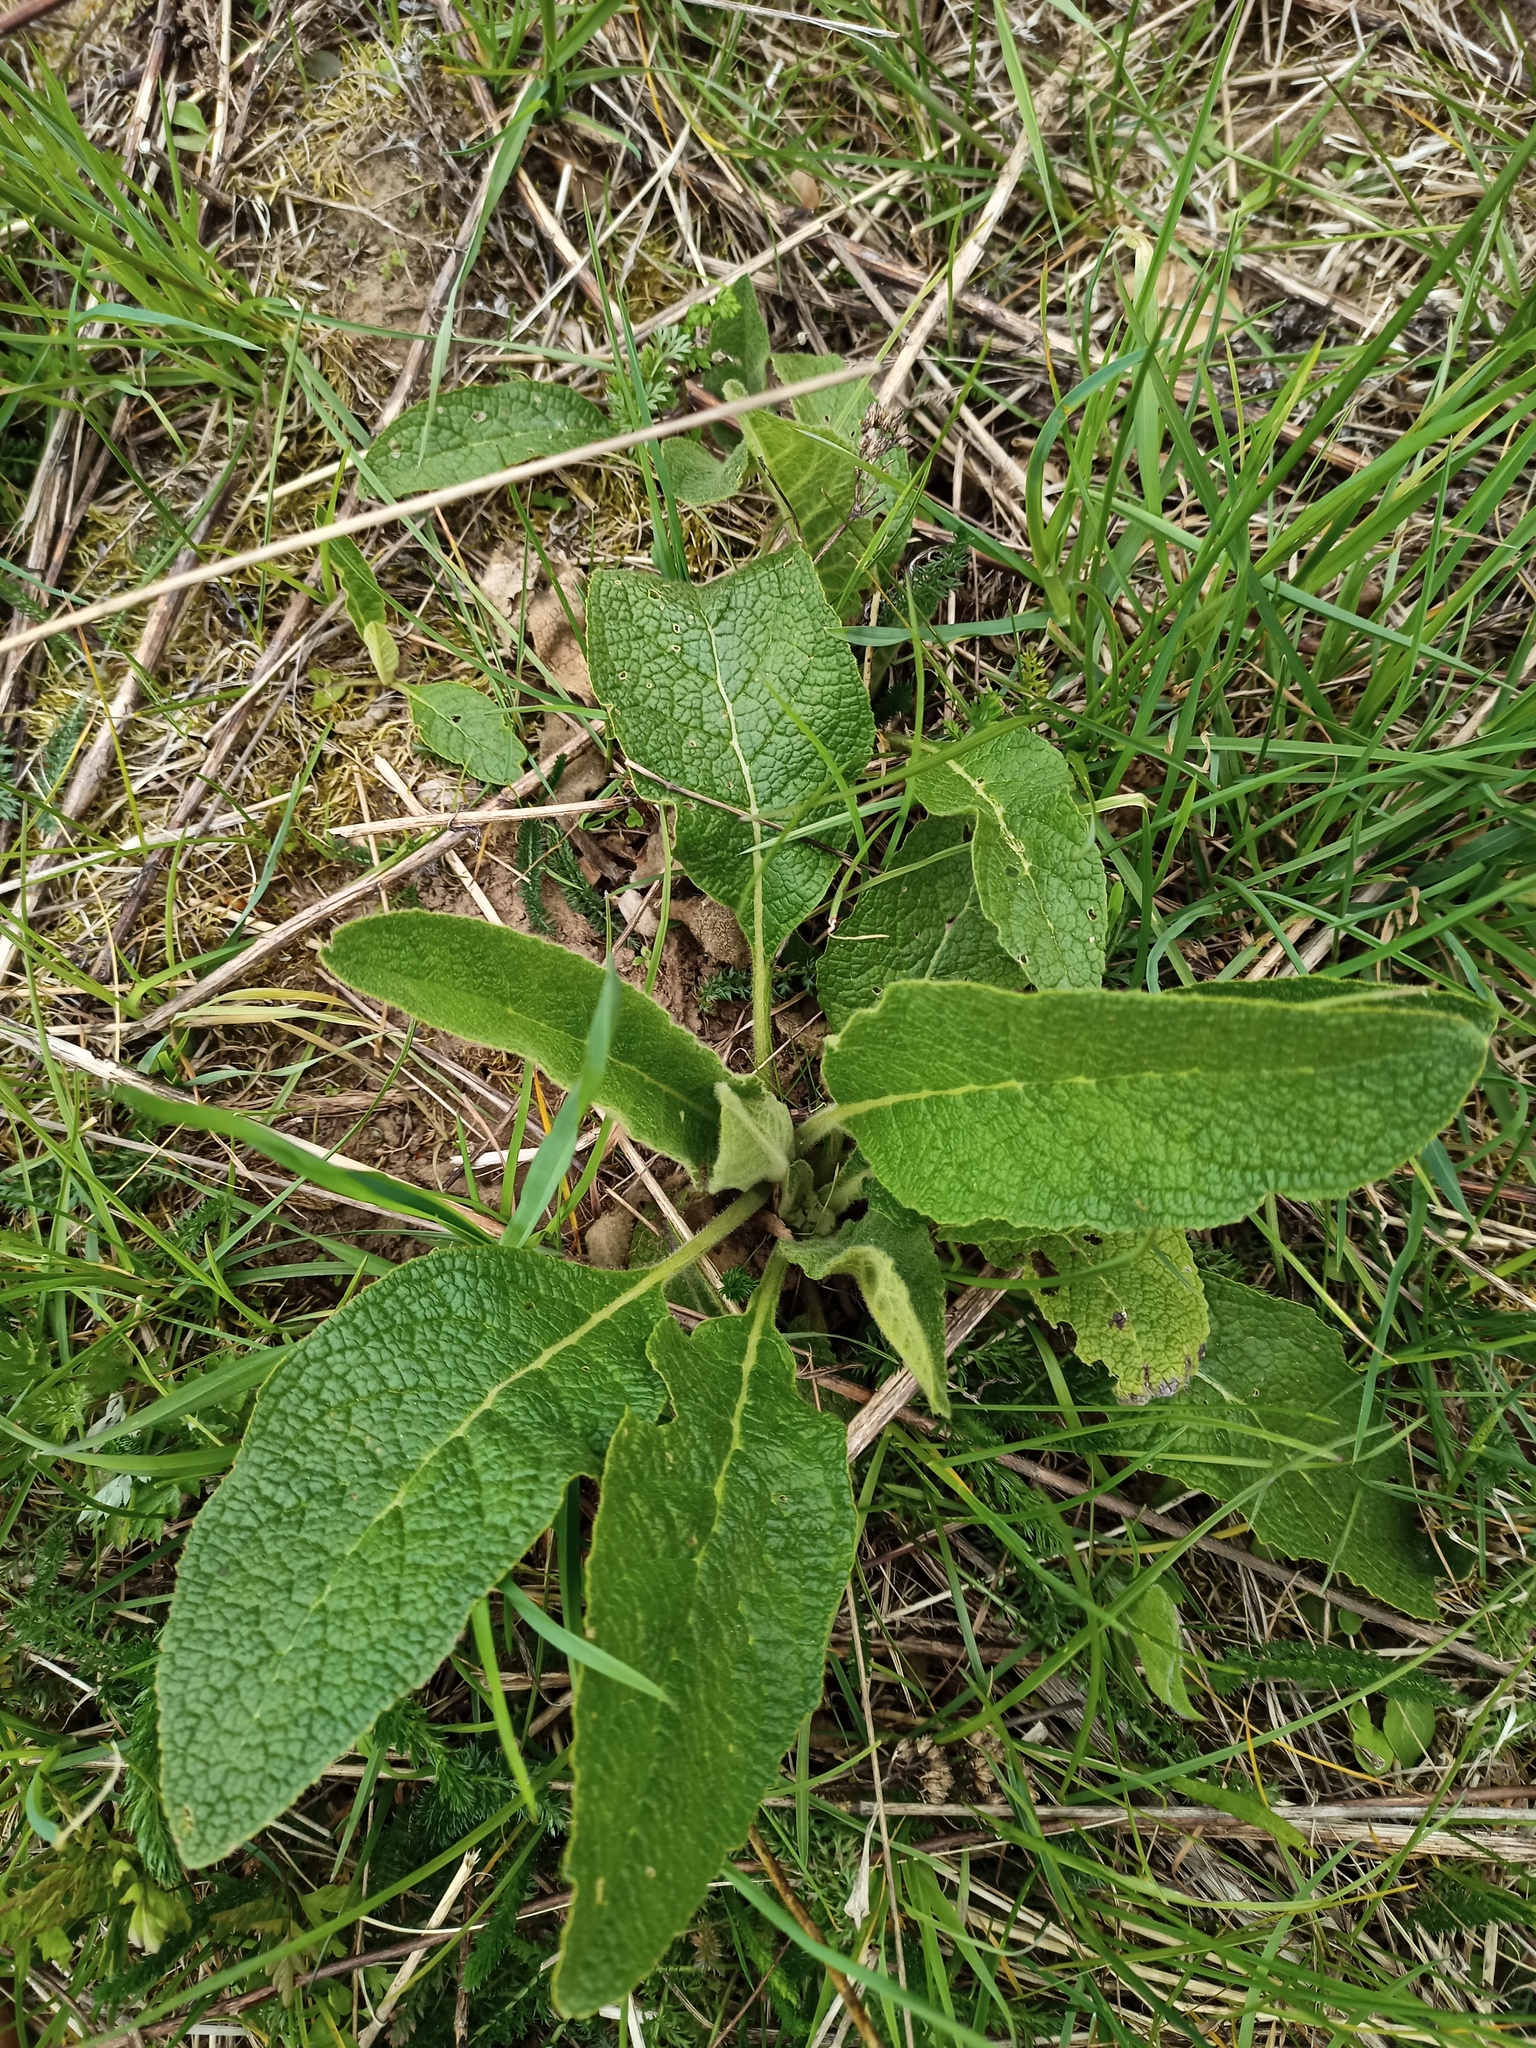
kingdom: Plantae
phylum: Tracheophyta
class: Magnoliopsida
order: Lamiales
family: Scrophulariaceae
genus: Verbascum
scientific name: Verbascum nigrum
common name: Dark mullein
